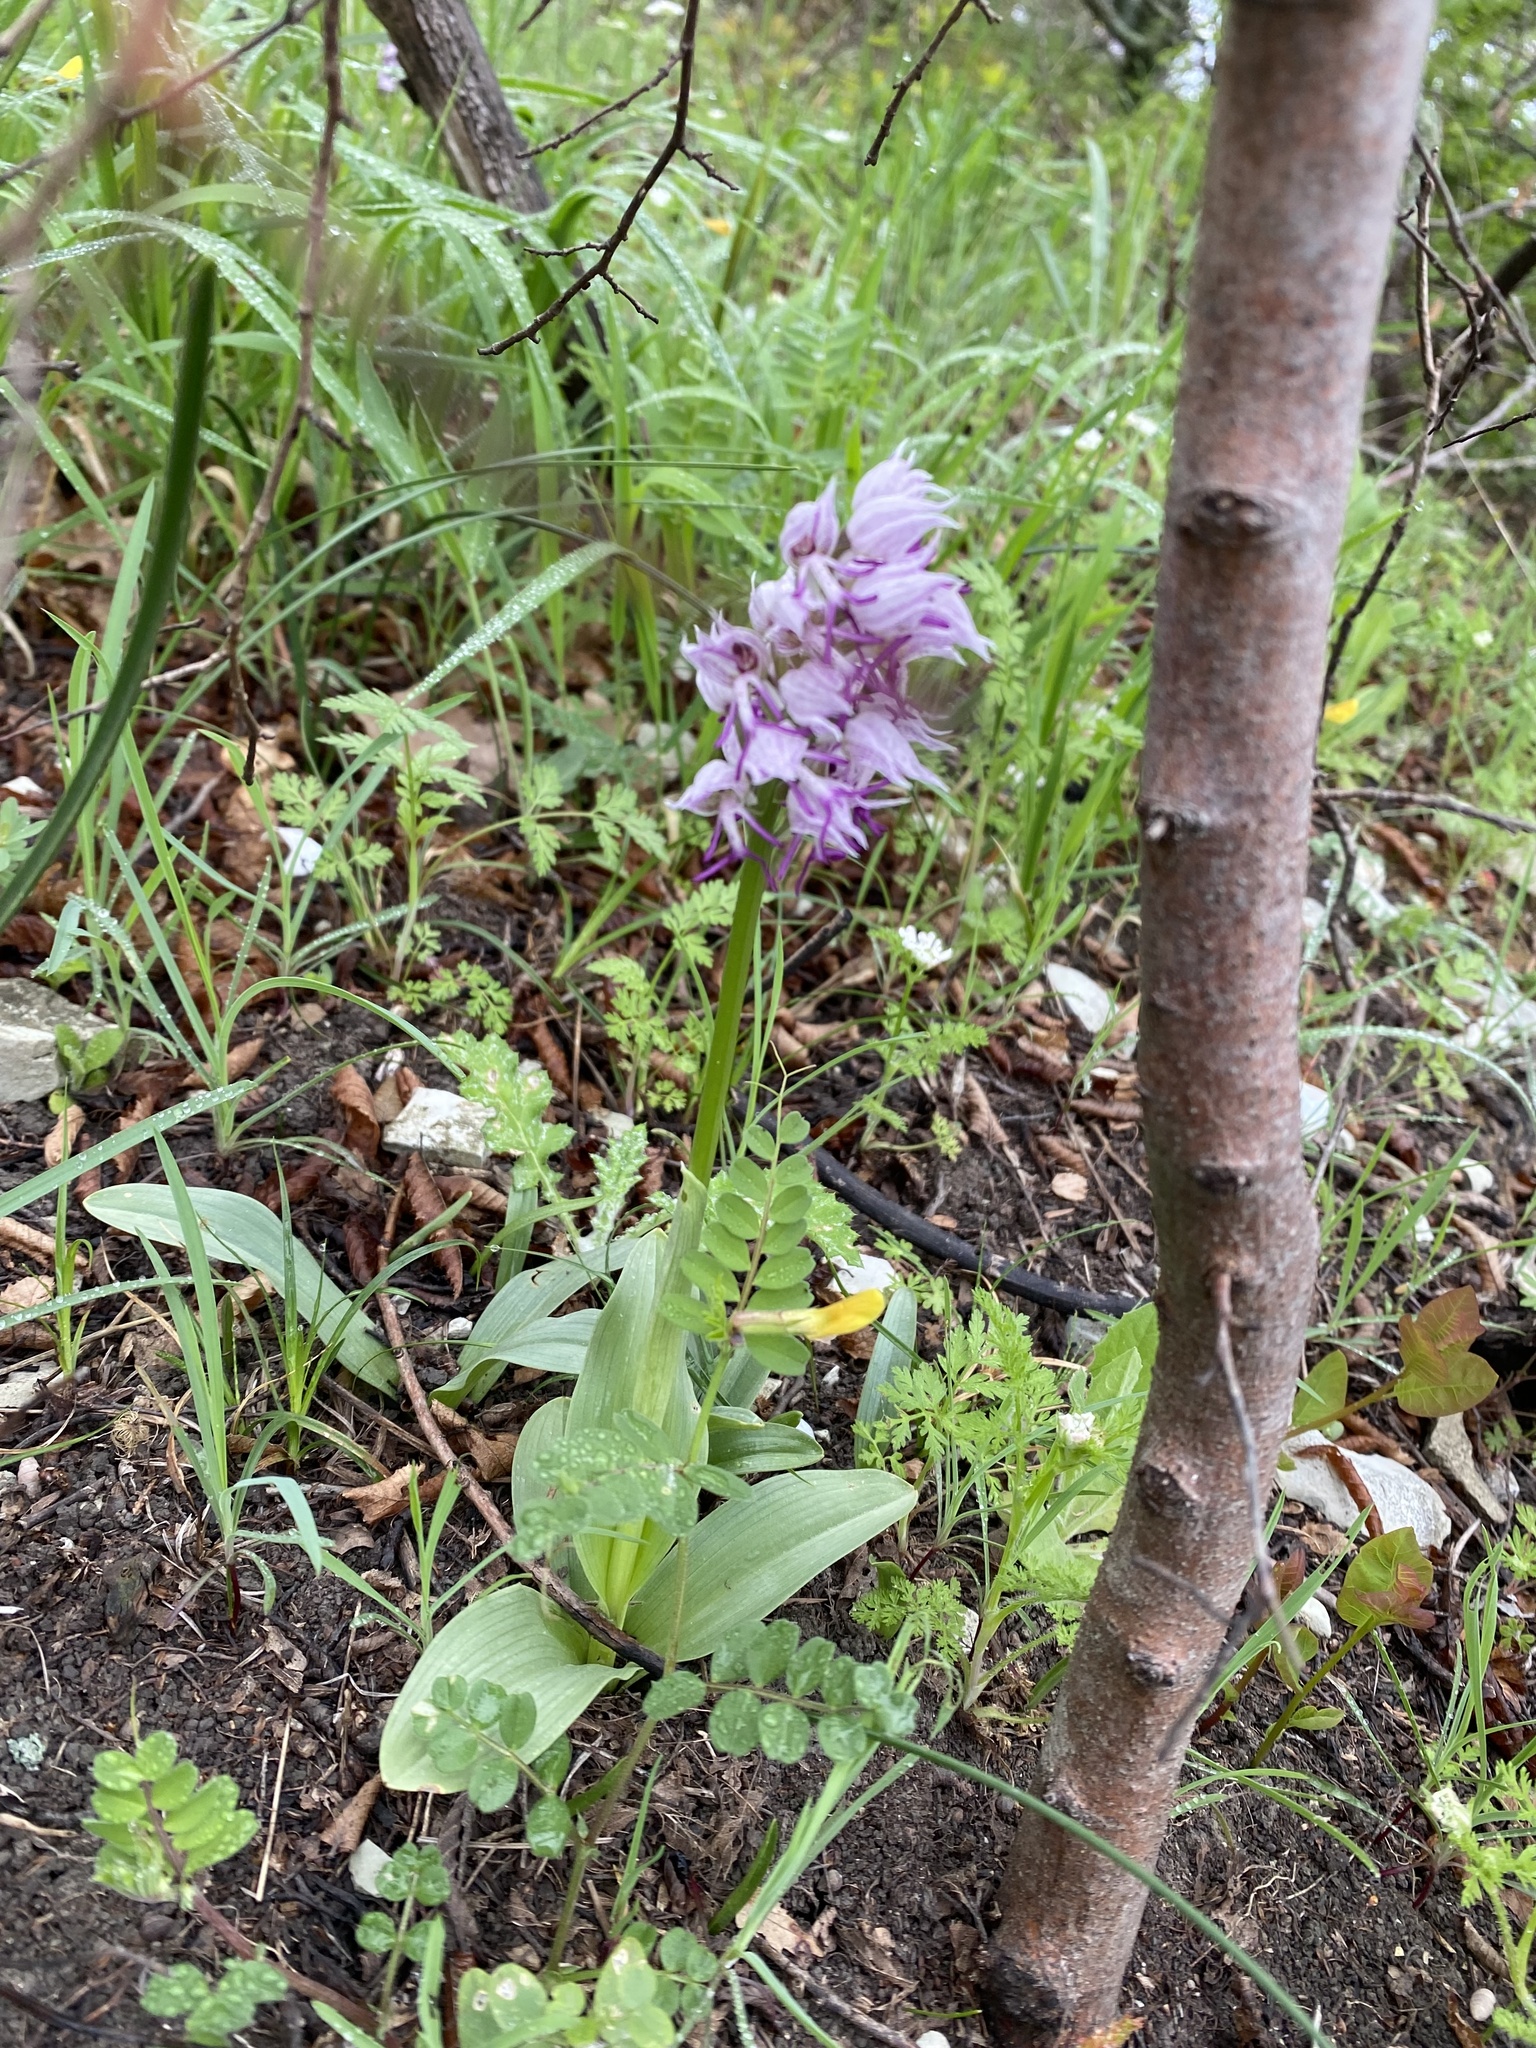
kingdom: Plantae
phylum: Tracheophyta
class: Liliopsida
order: Asparagales
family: Orchidaceae
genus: Orchis
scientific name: Orchis simia
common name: Monkey orchid
